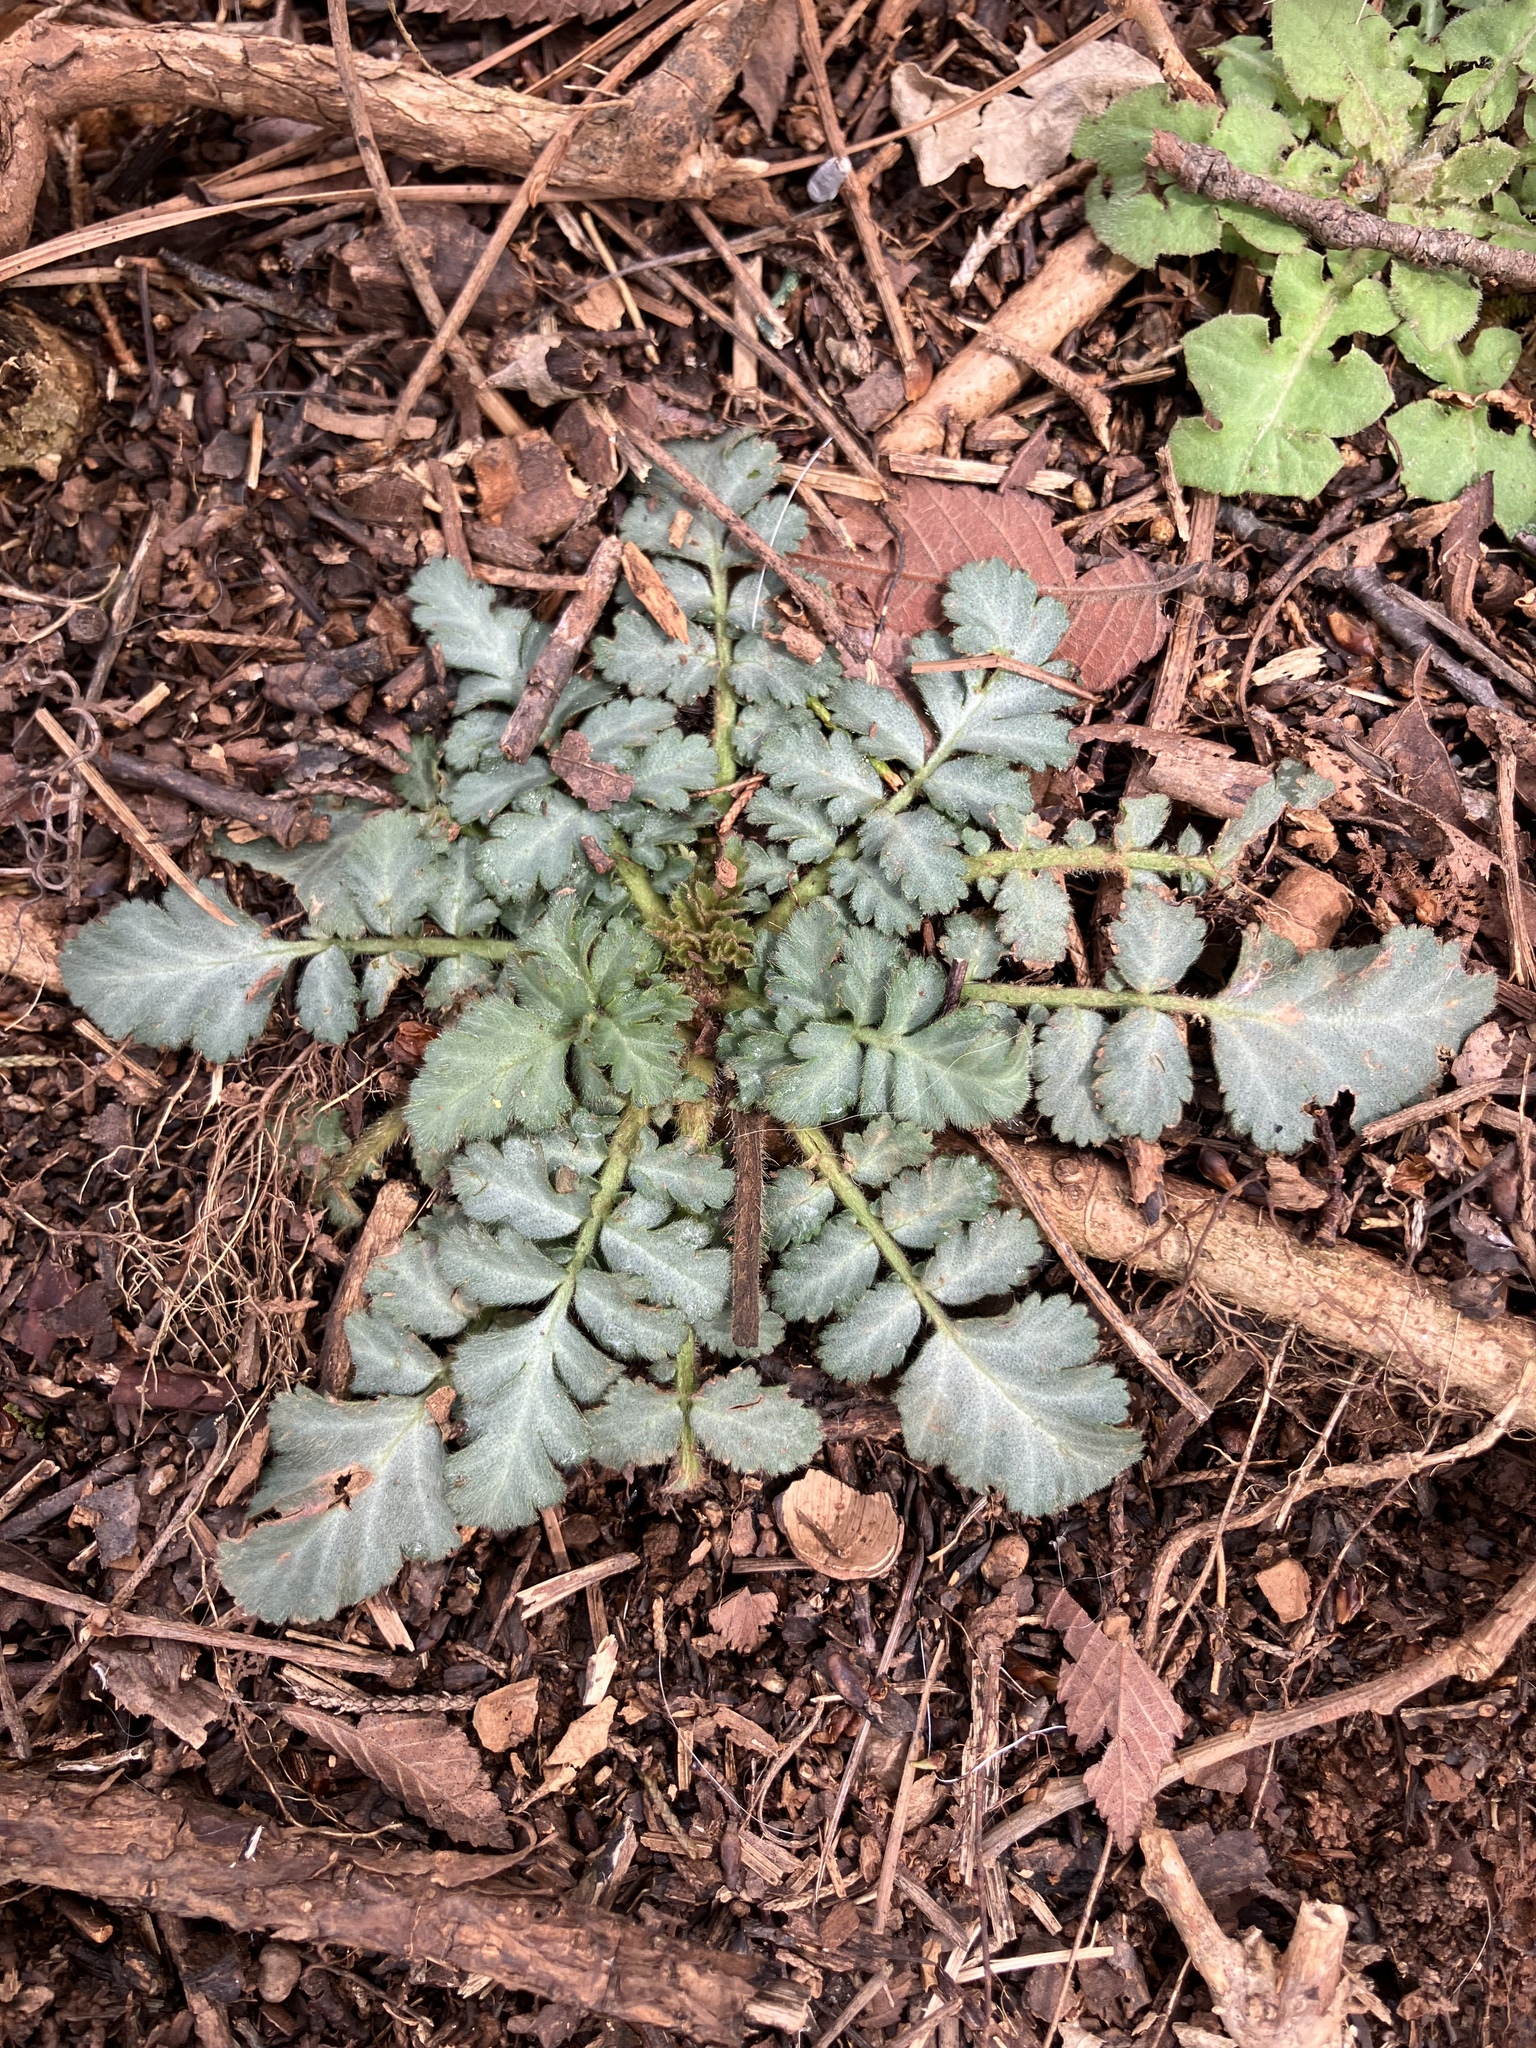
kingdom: Plantae
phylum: Tracheophyta
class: Magnoliopsida
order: Rosales
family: Rosaceae
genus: Geum
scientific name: Geum canadense
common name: White avens
